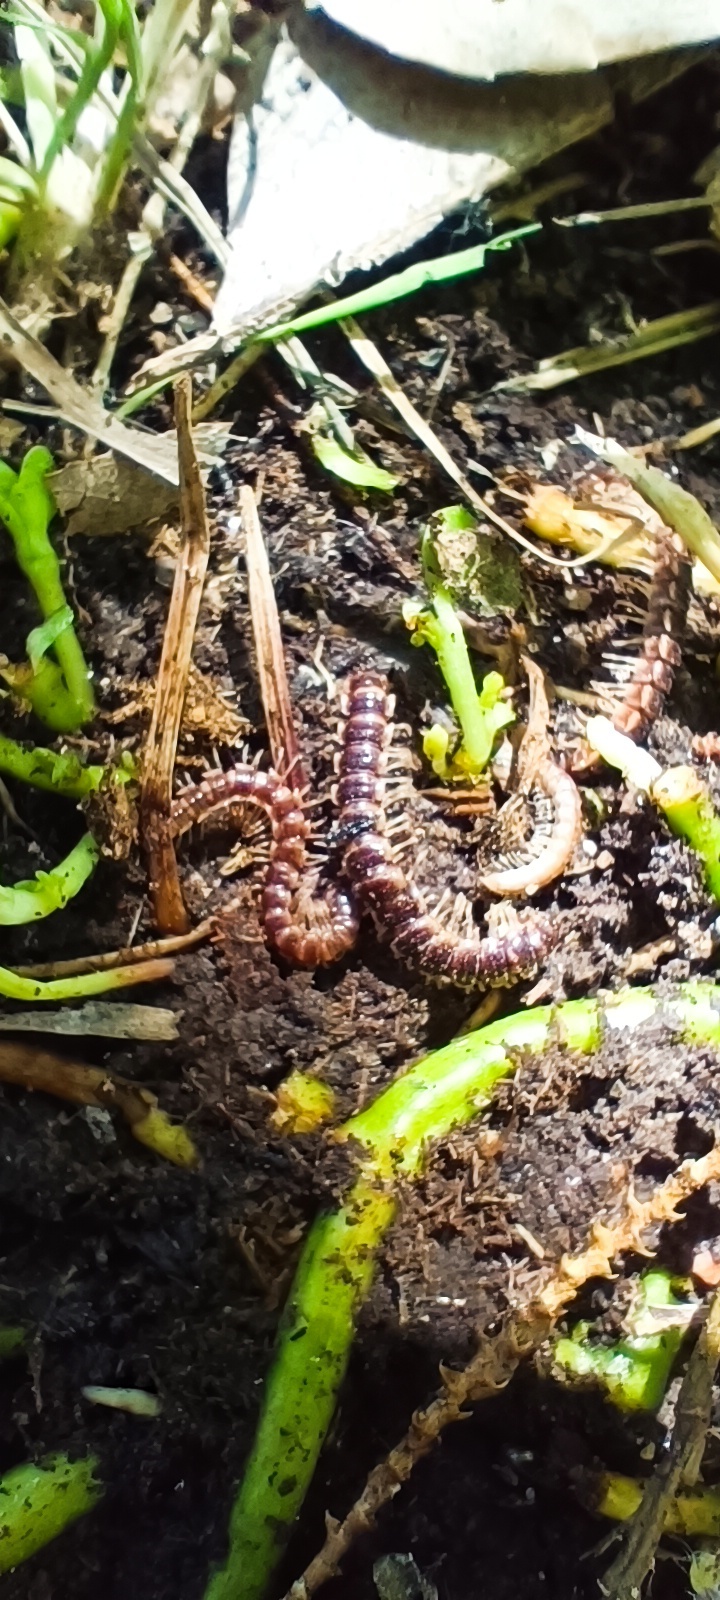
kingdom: Animalia
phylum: Arthropoda
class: Diplopoda
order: Polydesmida
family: Paradoxosomatidae
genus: Oxidus
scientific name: Oxidus gracilis
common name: Greenhouse millipede
